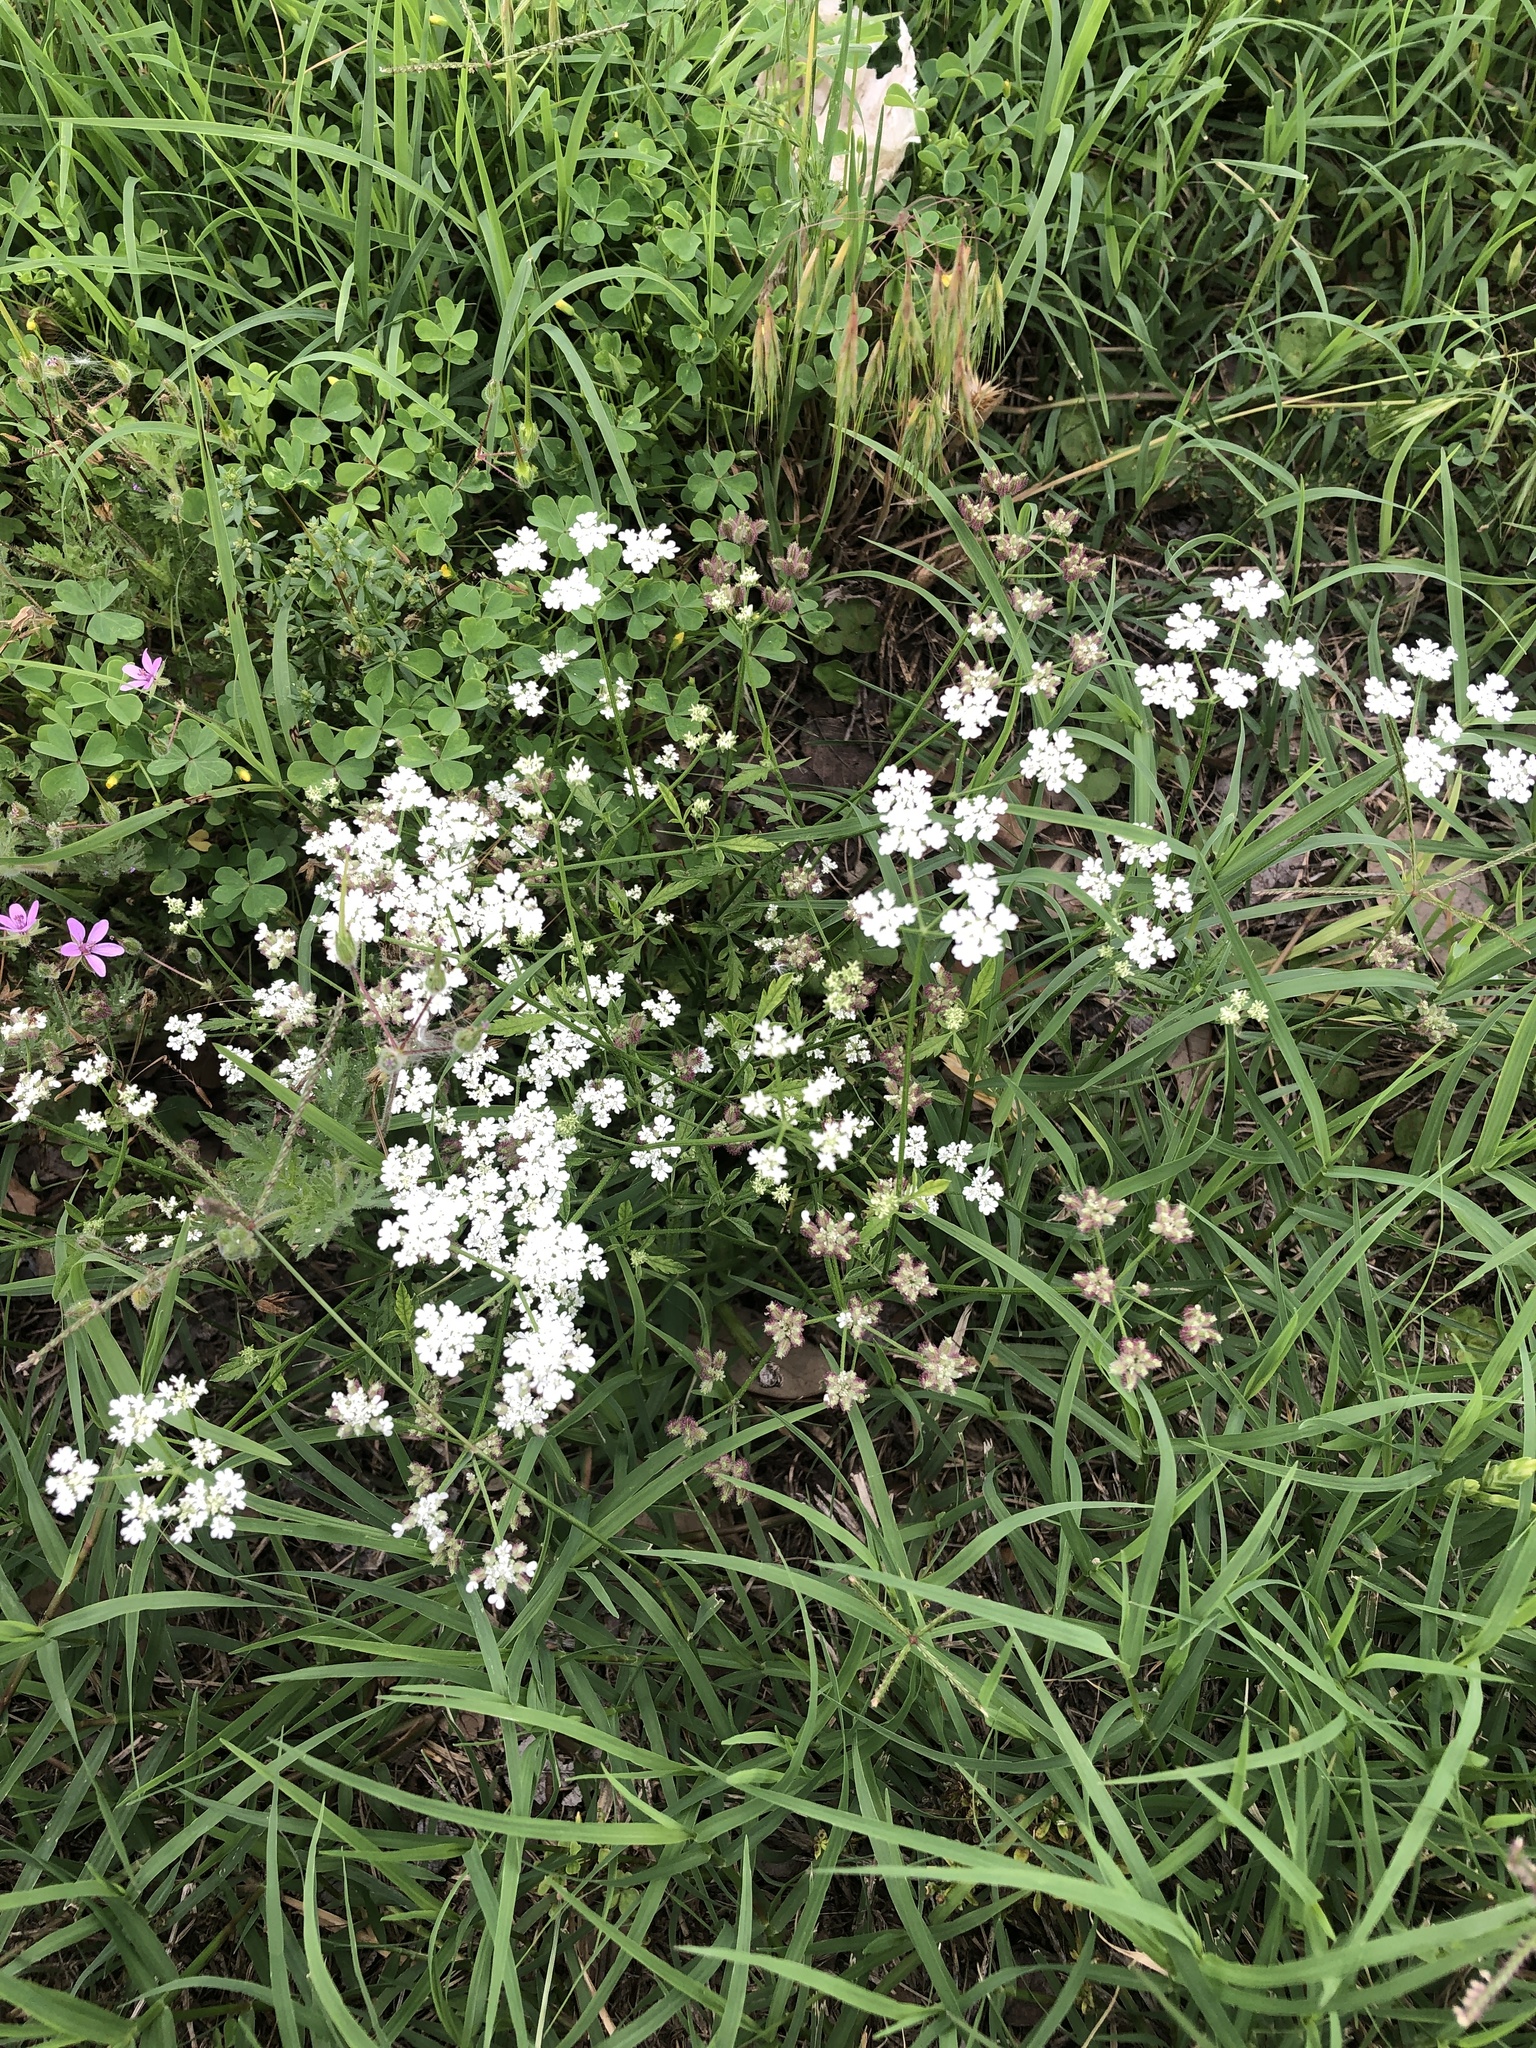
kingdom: Plantae
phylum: Tracheophyta
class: Magnoliopsida
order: Apiales
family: Apiaceae
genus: Torilis
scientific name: Torilis arvensis
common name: Spreading hedge-parsley
